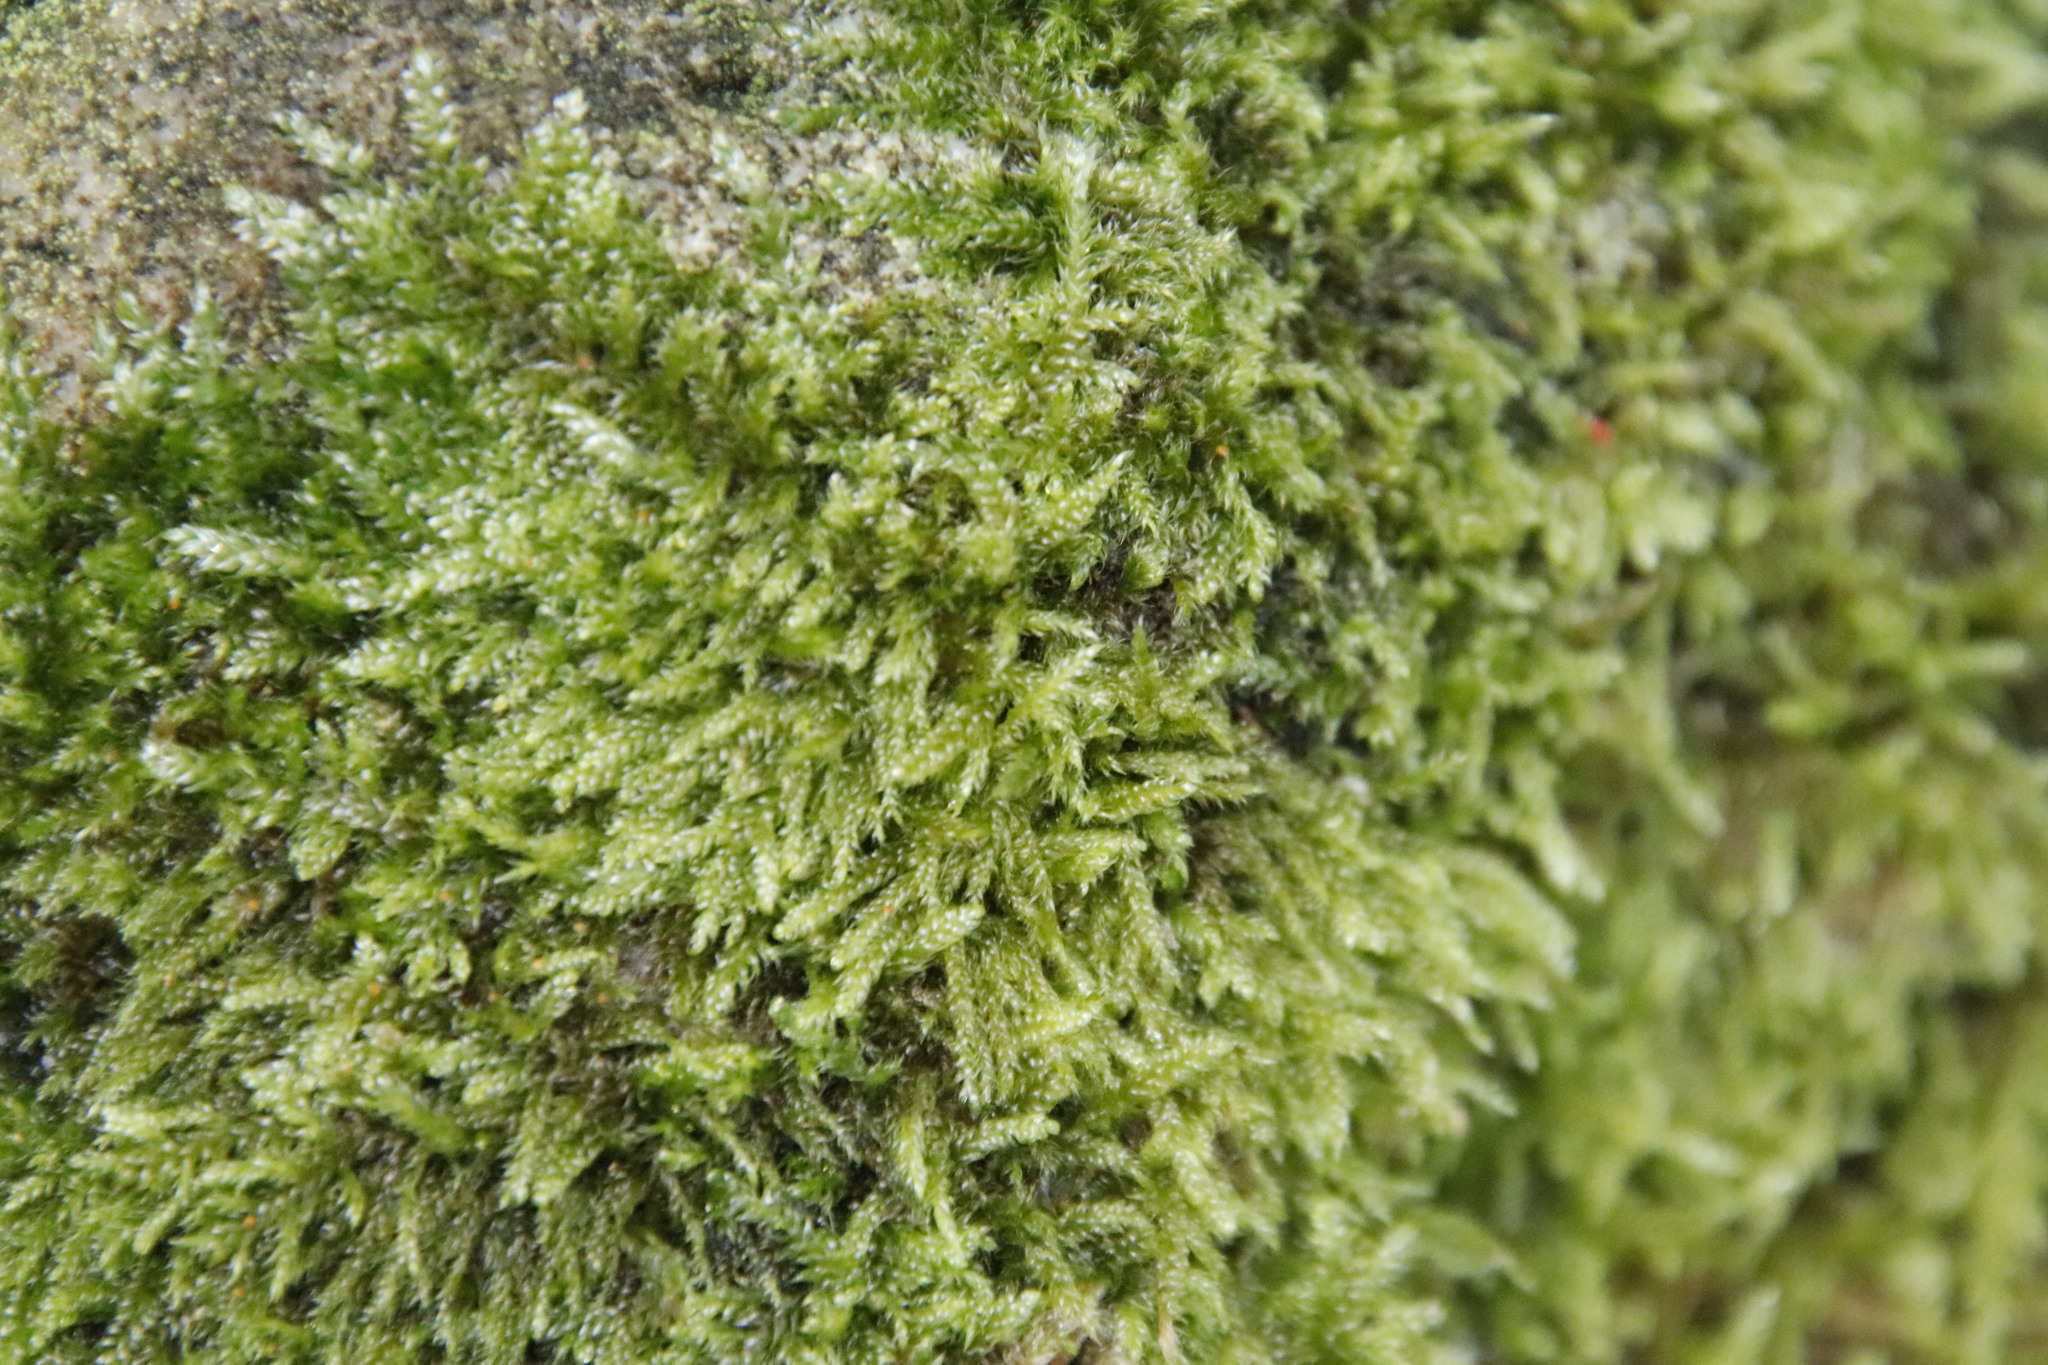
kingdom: Plantae
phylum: Bryophyta
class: Bryopsida
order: Hypnales
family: Hypnaceae
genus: Hypnum
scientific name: Hypnum cupressiforme
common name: Cypress-leaved plait-moss
